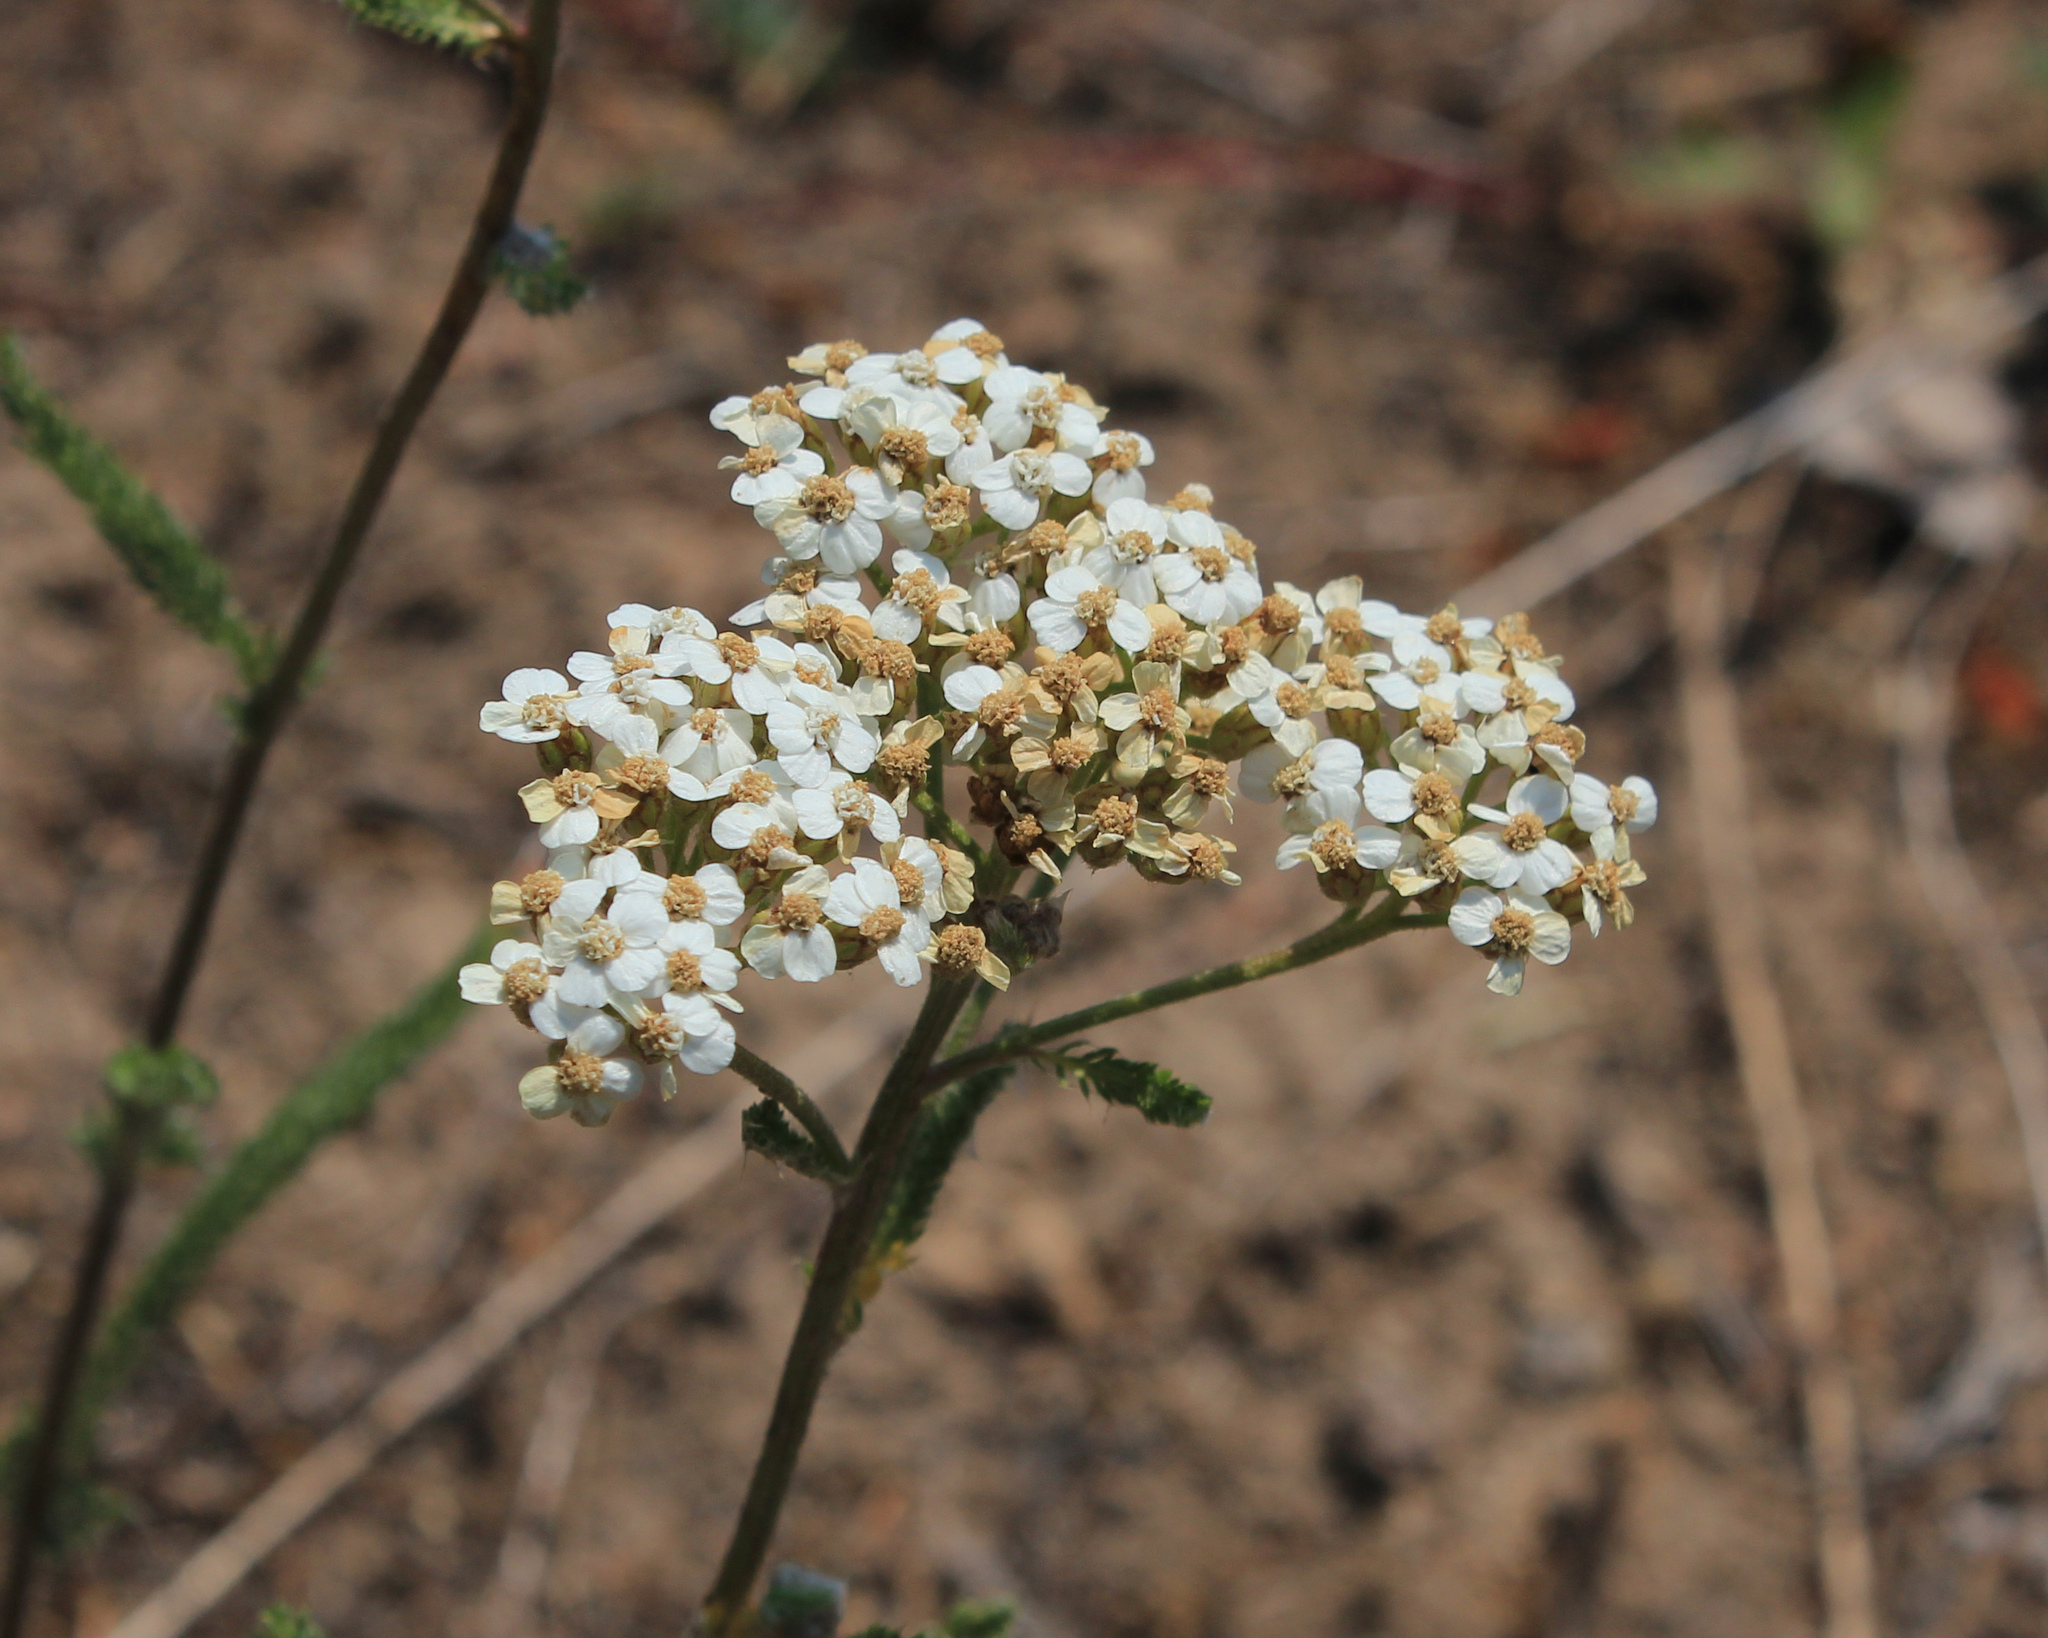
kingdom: Plantae
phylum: Tracheophyta
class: Magnoliopsida
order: Asterales
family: Asteraceae
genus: Achillea
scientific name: Achillea millefolium
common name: Yarrow
